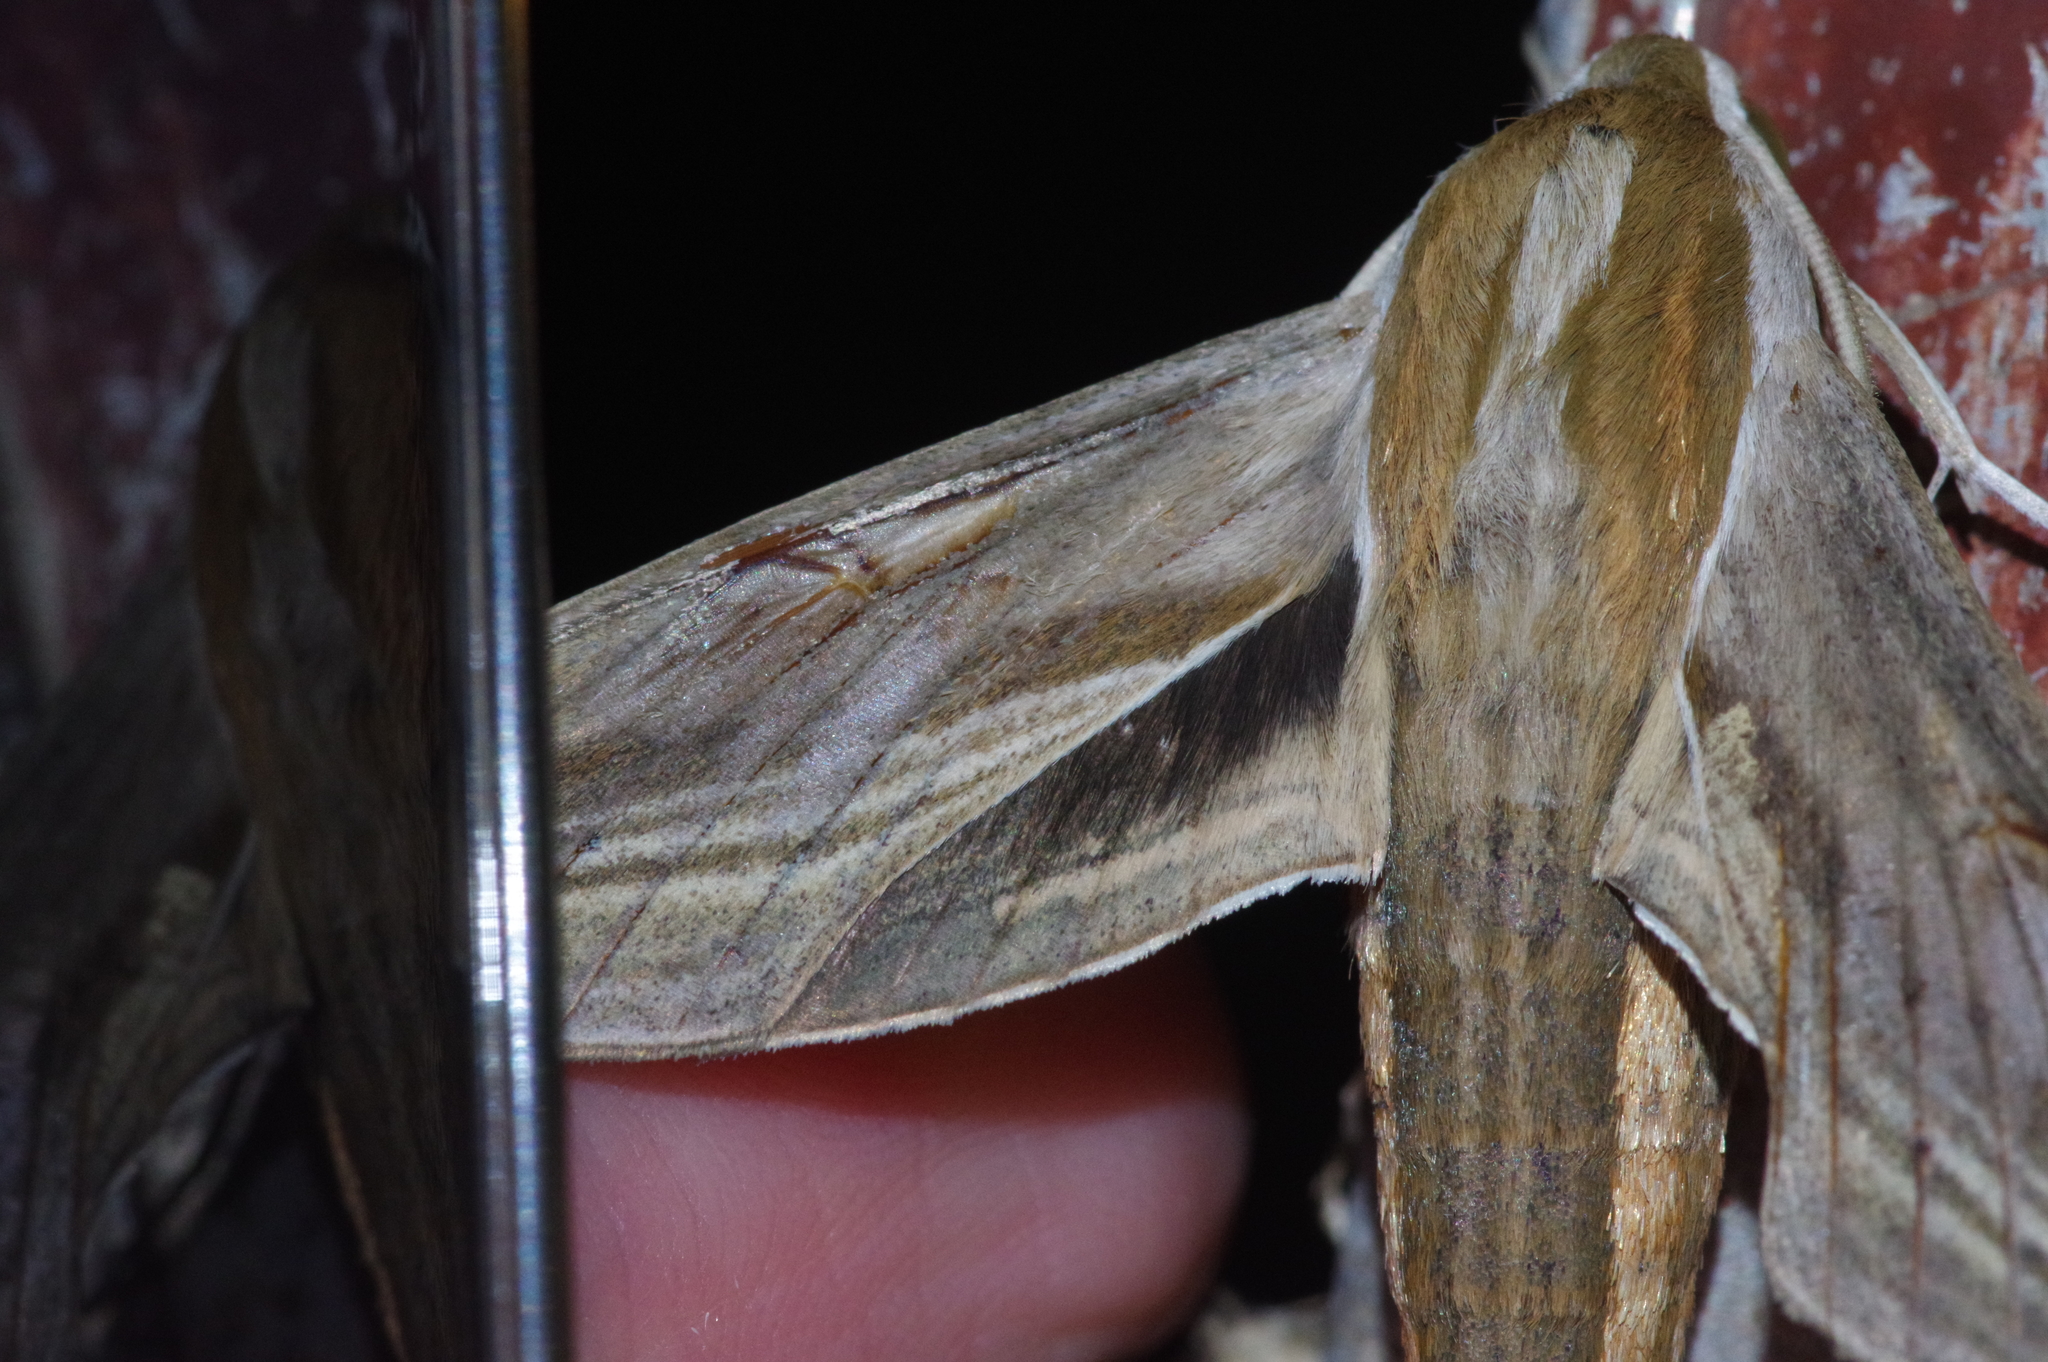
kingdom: Animalia
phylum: Arthropoda
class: Insecta
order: Lepidoptera
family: Sphingidae
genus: Theretra
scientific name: Theretra japonica
